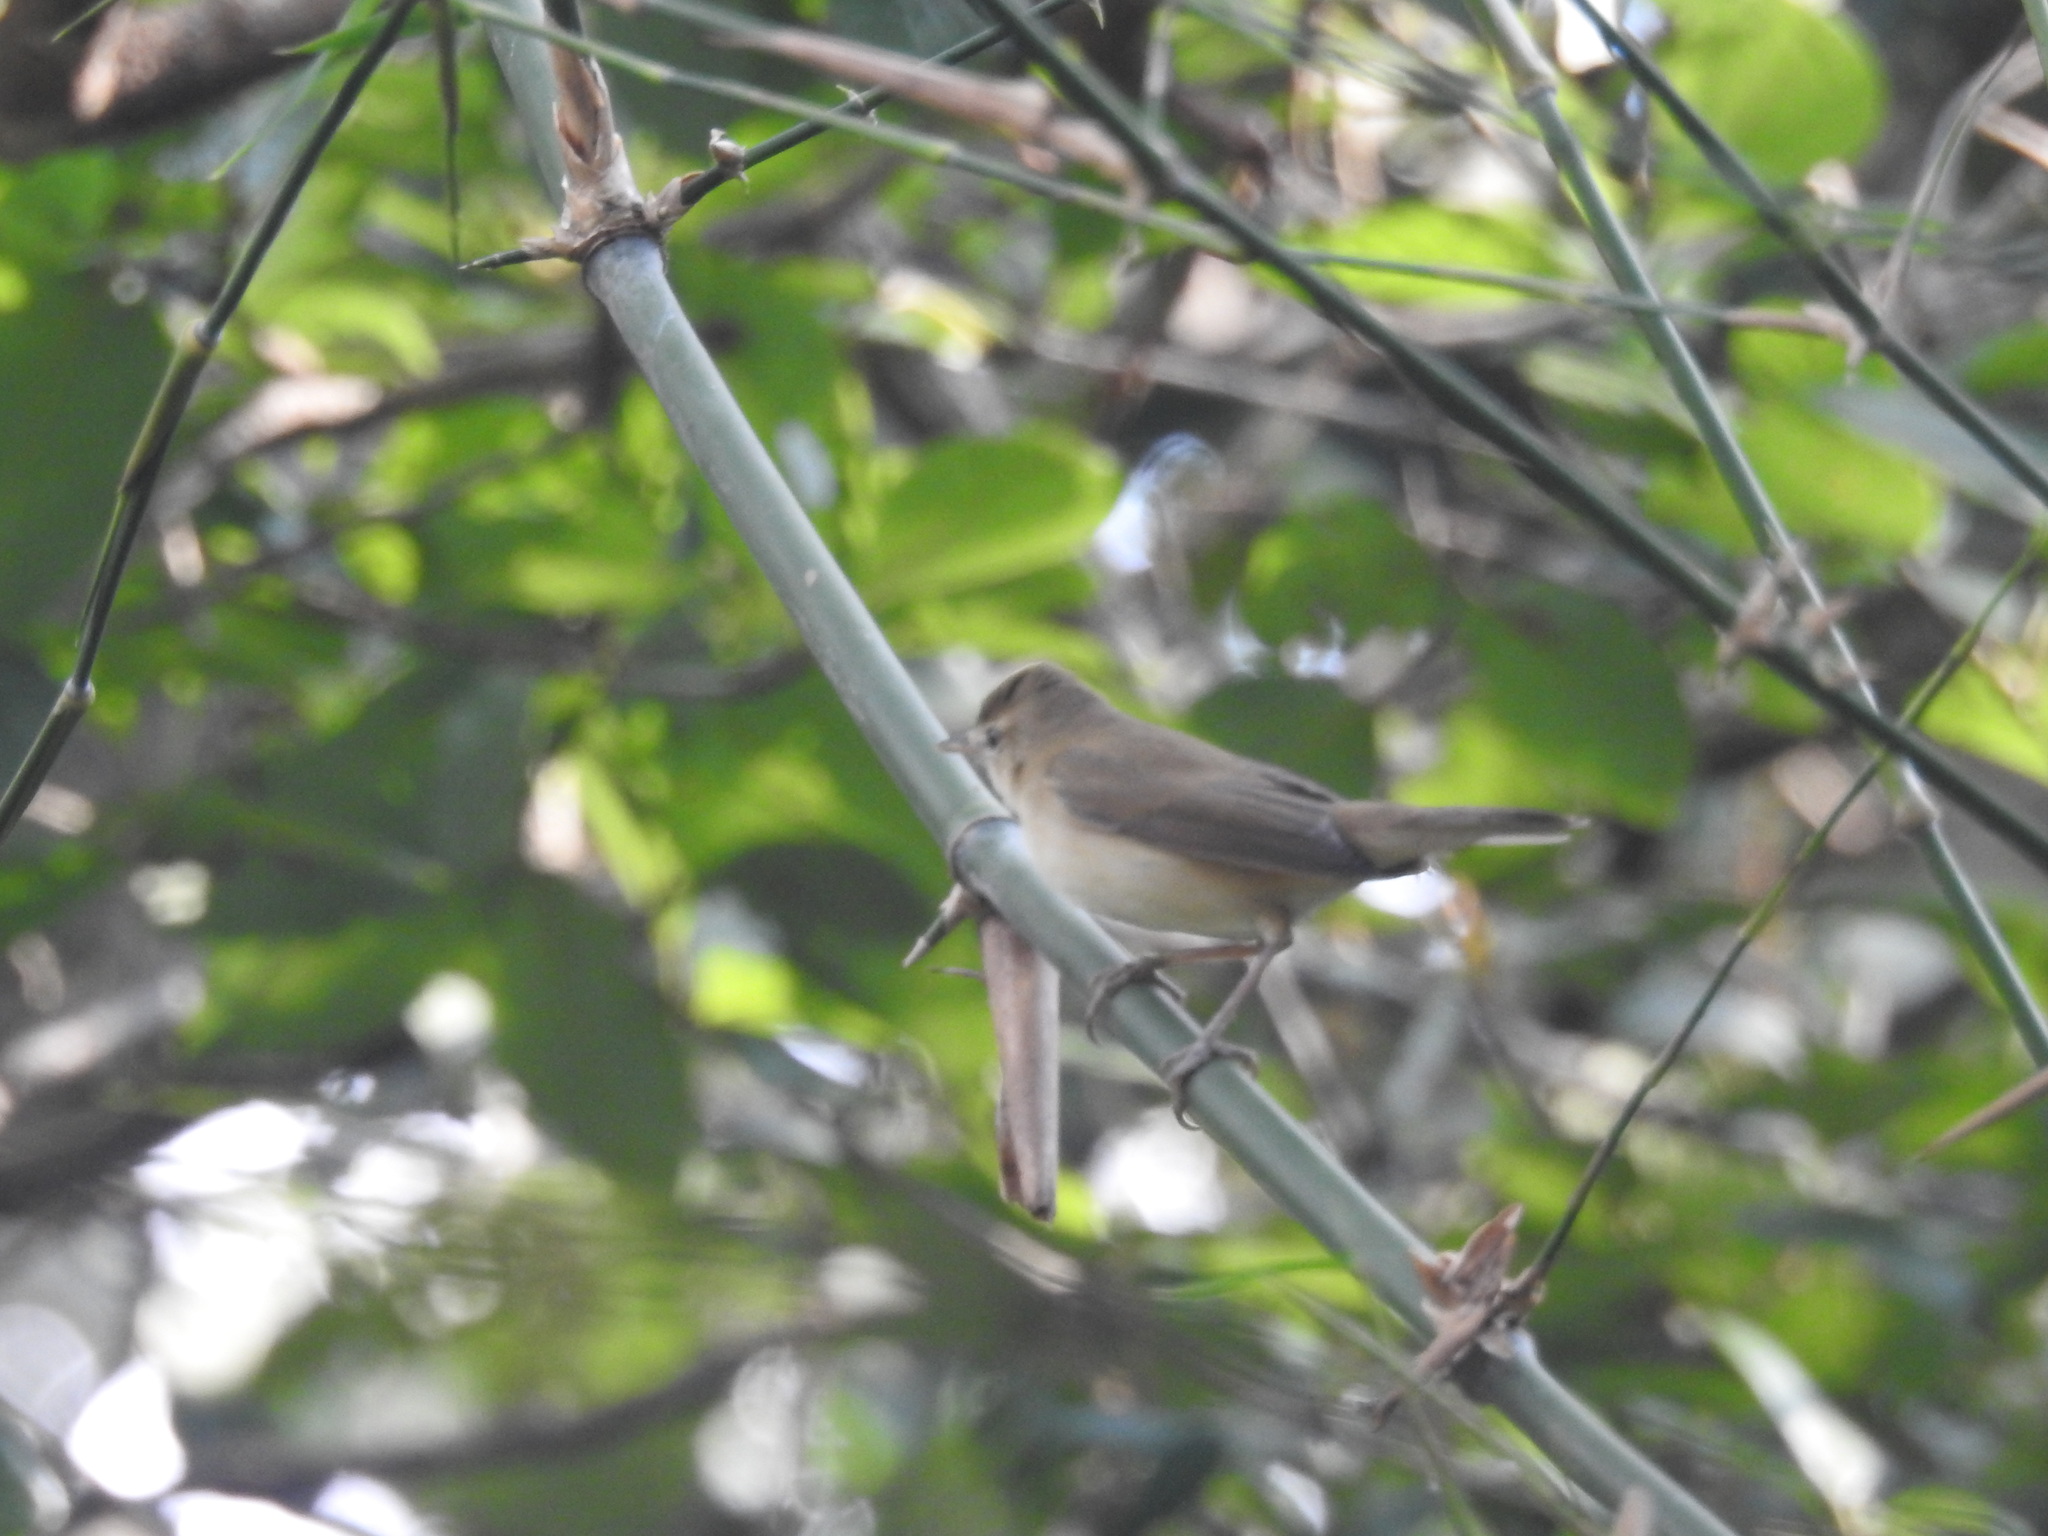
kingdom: Animalia
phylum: Chordata
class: Aves
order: Passeriformes
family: Acrocephalidae
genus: Acrocephalus
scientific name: Acrocephalus dumetorum
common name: Blyth's reed warbler
